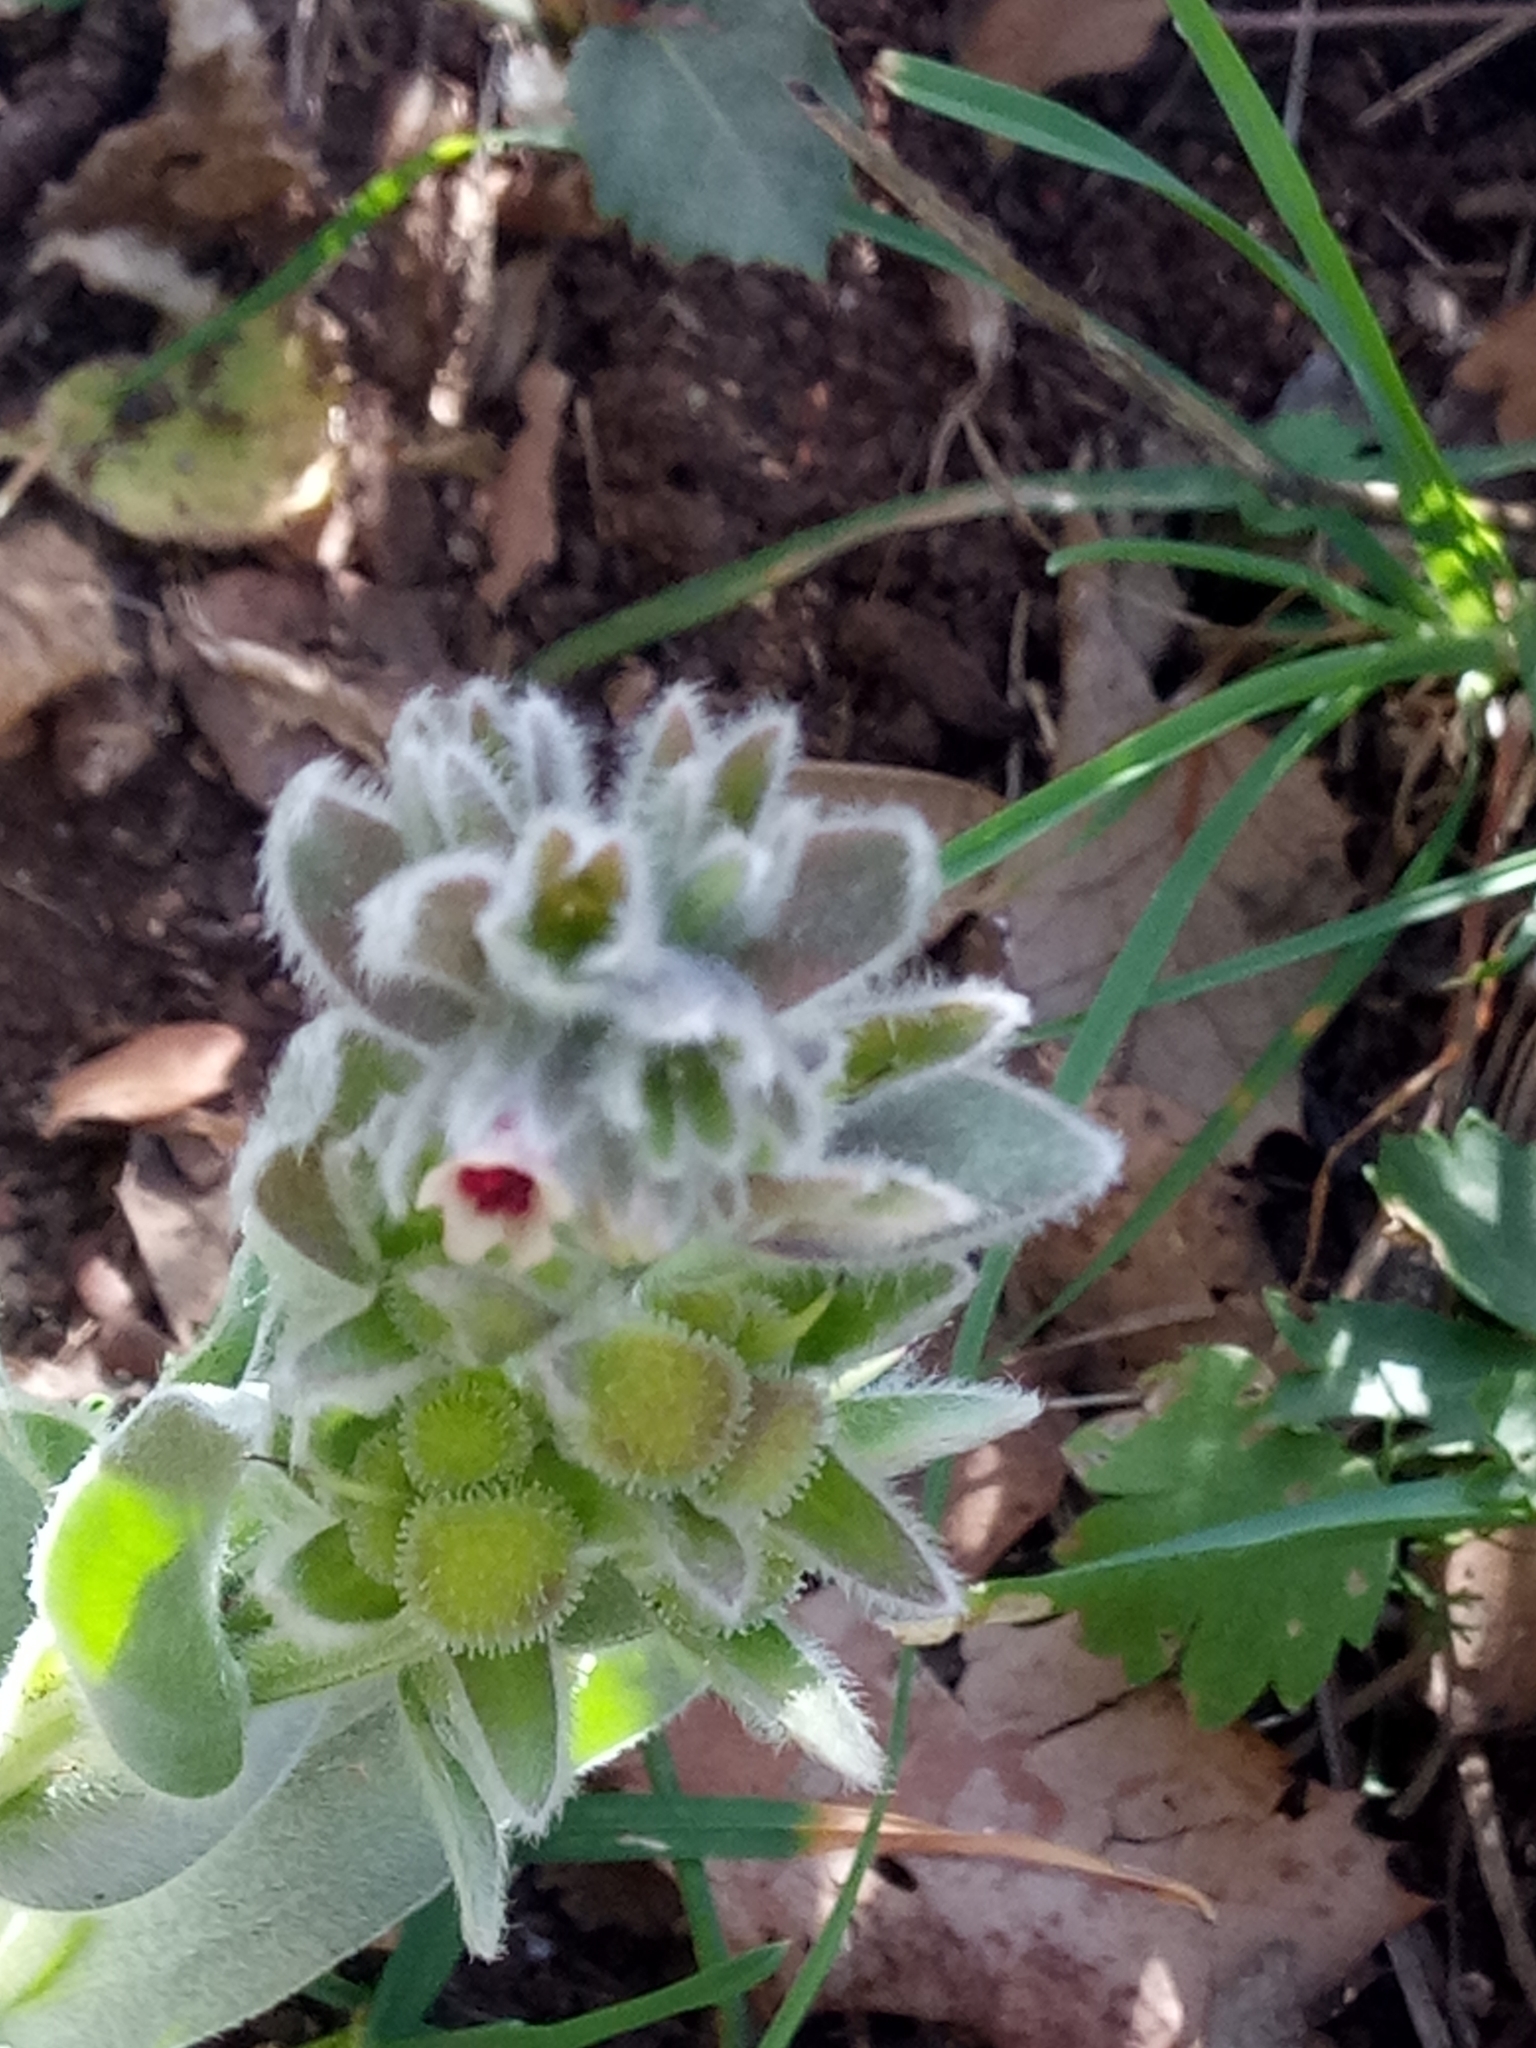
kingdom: Plantae
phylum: Tracheophyta
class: Magnoliopsida
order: Boraginales
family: Boraginaceae
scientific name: Boraginaceae
